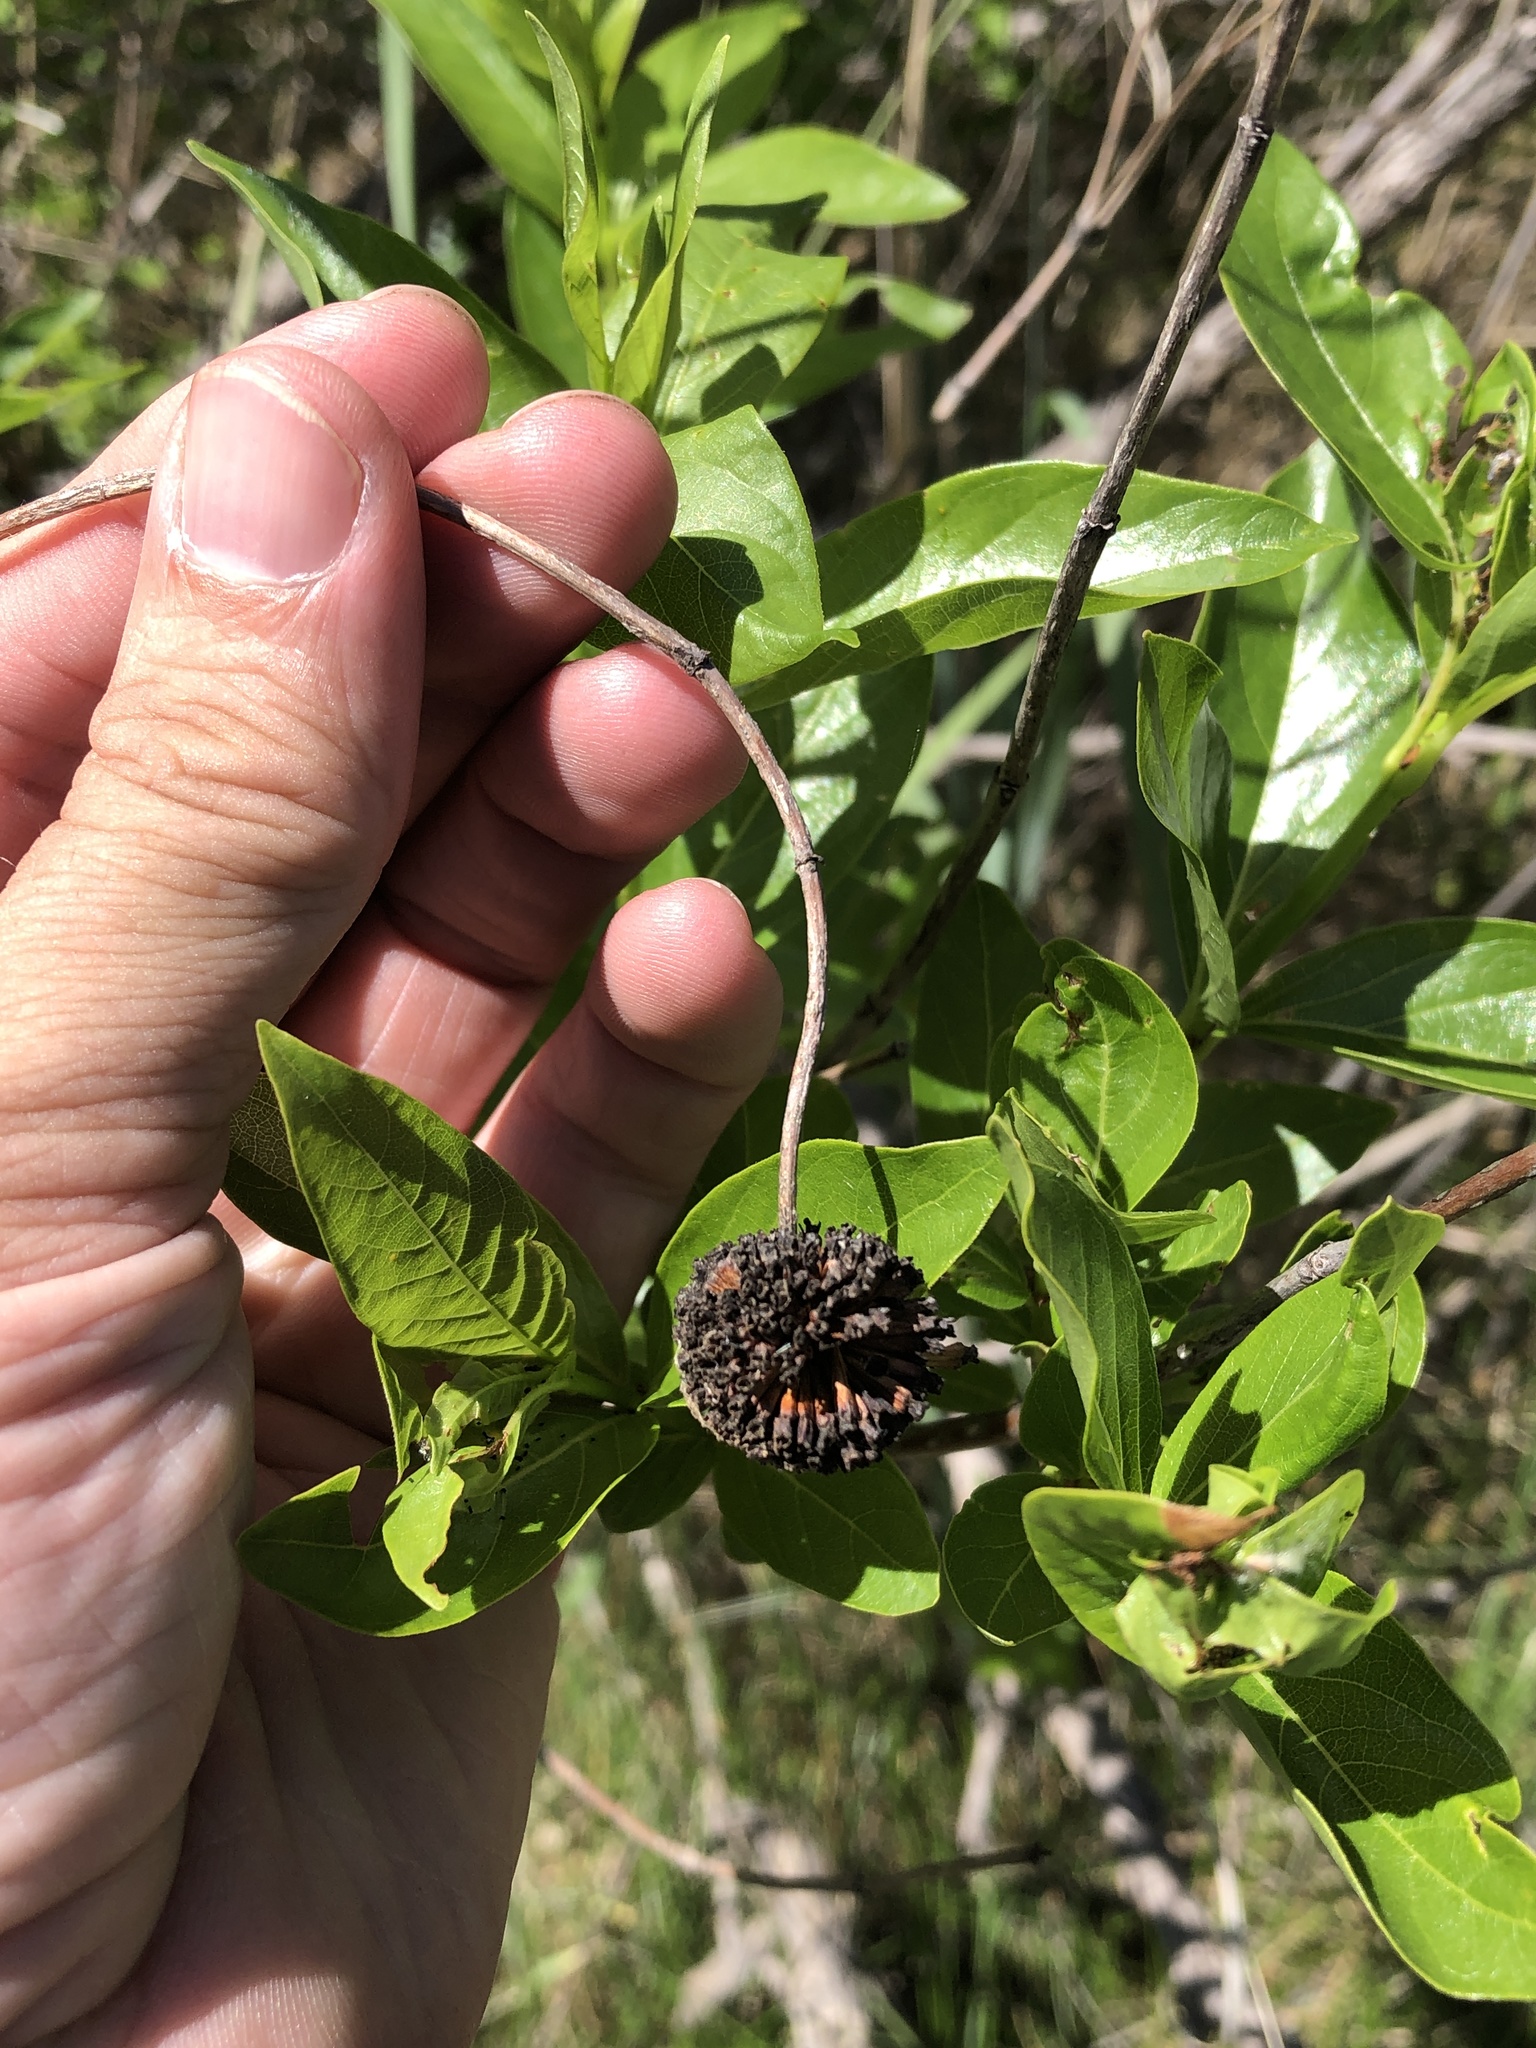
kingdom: Plantae
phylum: Tracheophyta
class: Magnoliopsida
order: Gentianales
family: Rubiaceae
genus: Cephalanthus
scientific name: Cephalanthus occidentalis
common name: Button-willow
